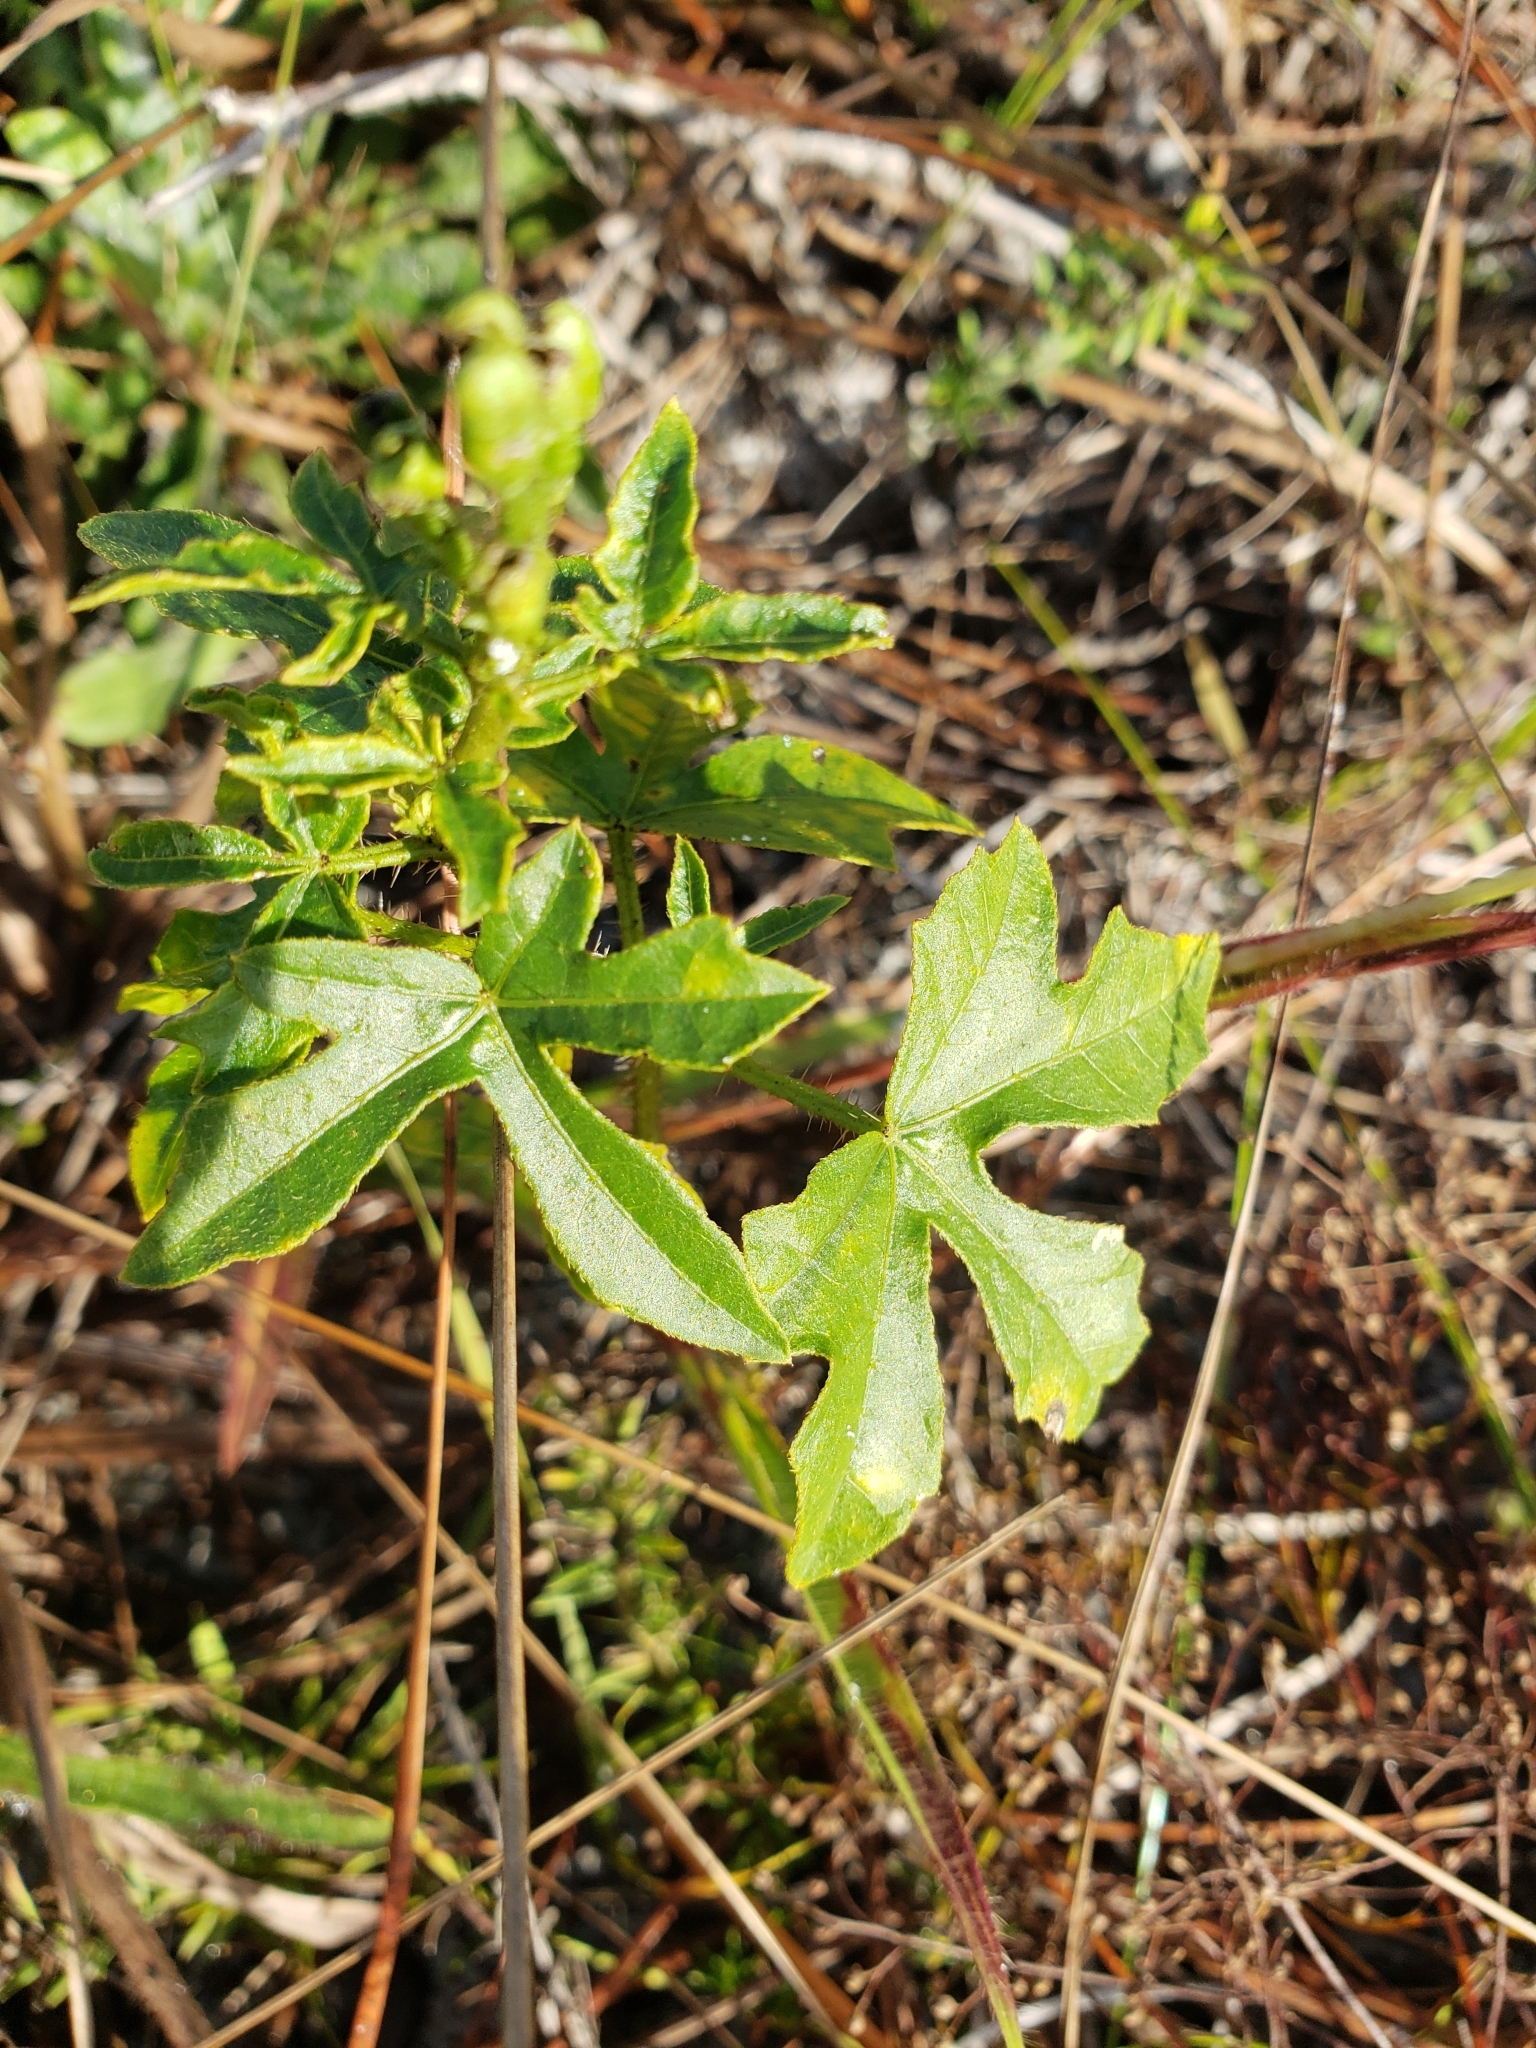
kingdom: Plantae
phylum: Tracheophyta
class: Magnoliopsida
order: Malpighiales
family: Euphorbiaceae
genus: Cnidoscolus
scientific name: Cnidoscolus stimulosus
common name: Bull-nettle
